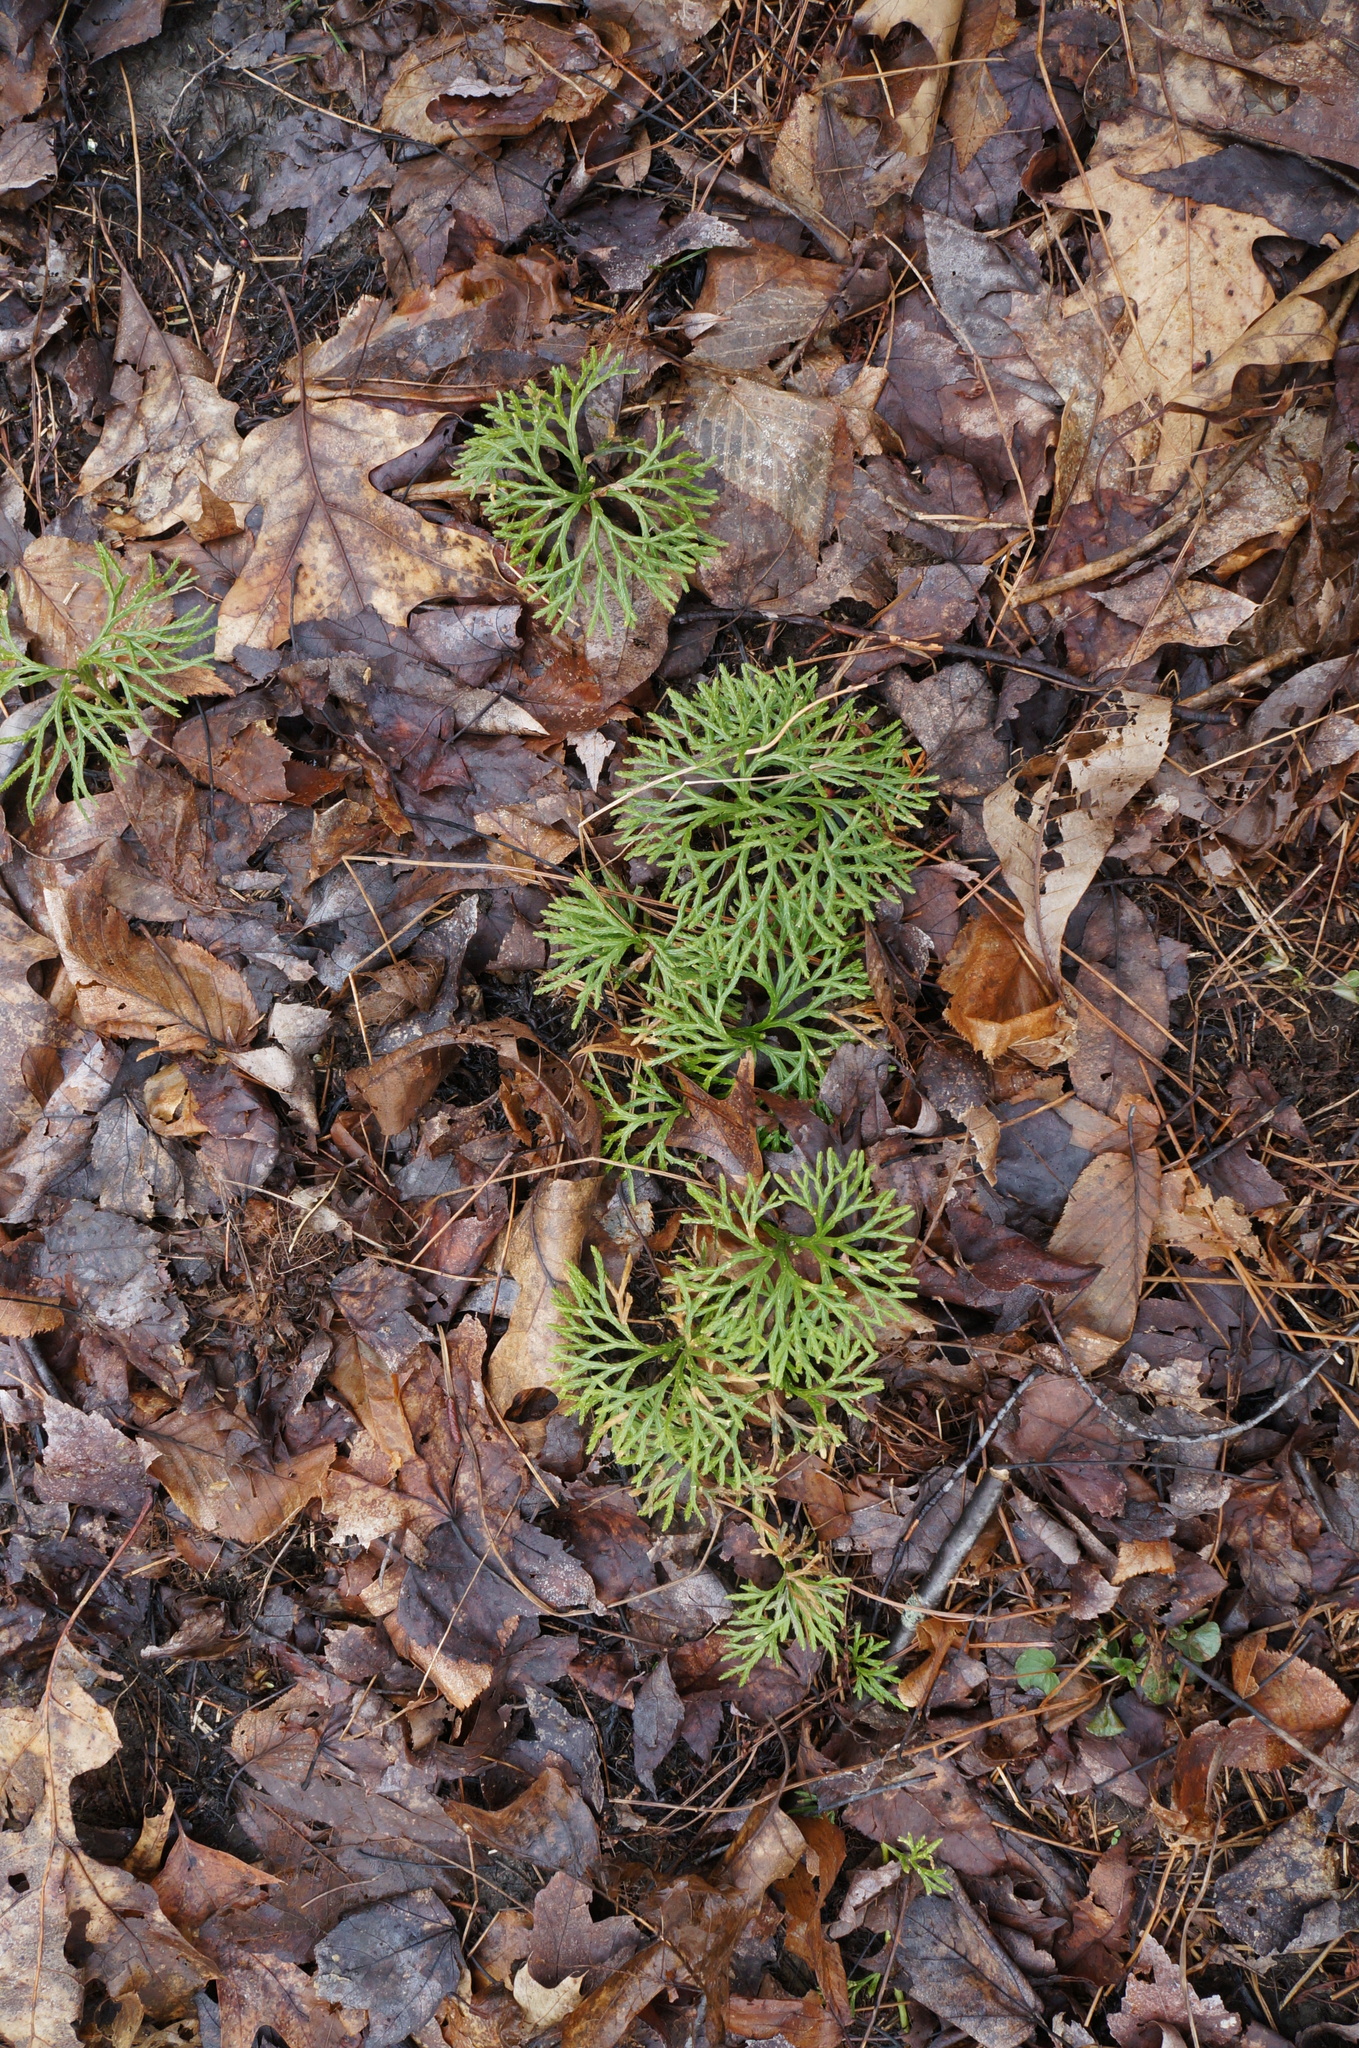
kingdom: Plantae
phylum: Tracheophyta
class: Lycopodiopsida
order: Lycopodiales
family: Lycopodiaceae
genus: Diphasiastrum
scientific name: Diphasiastrum digitatum
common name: Southern running-pine
